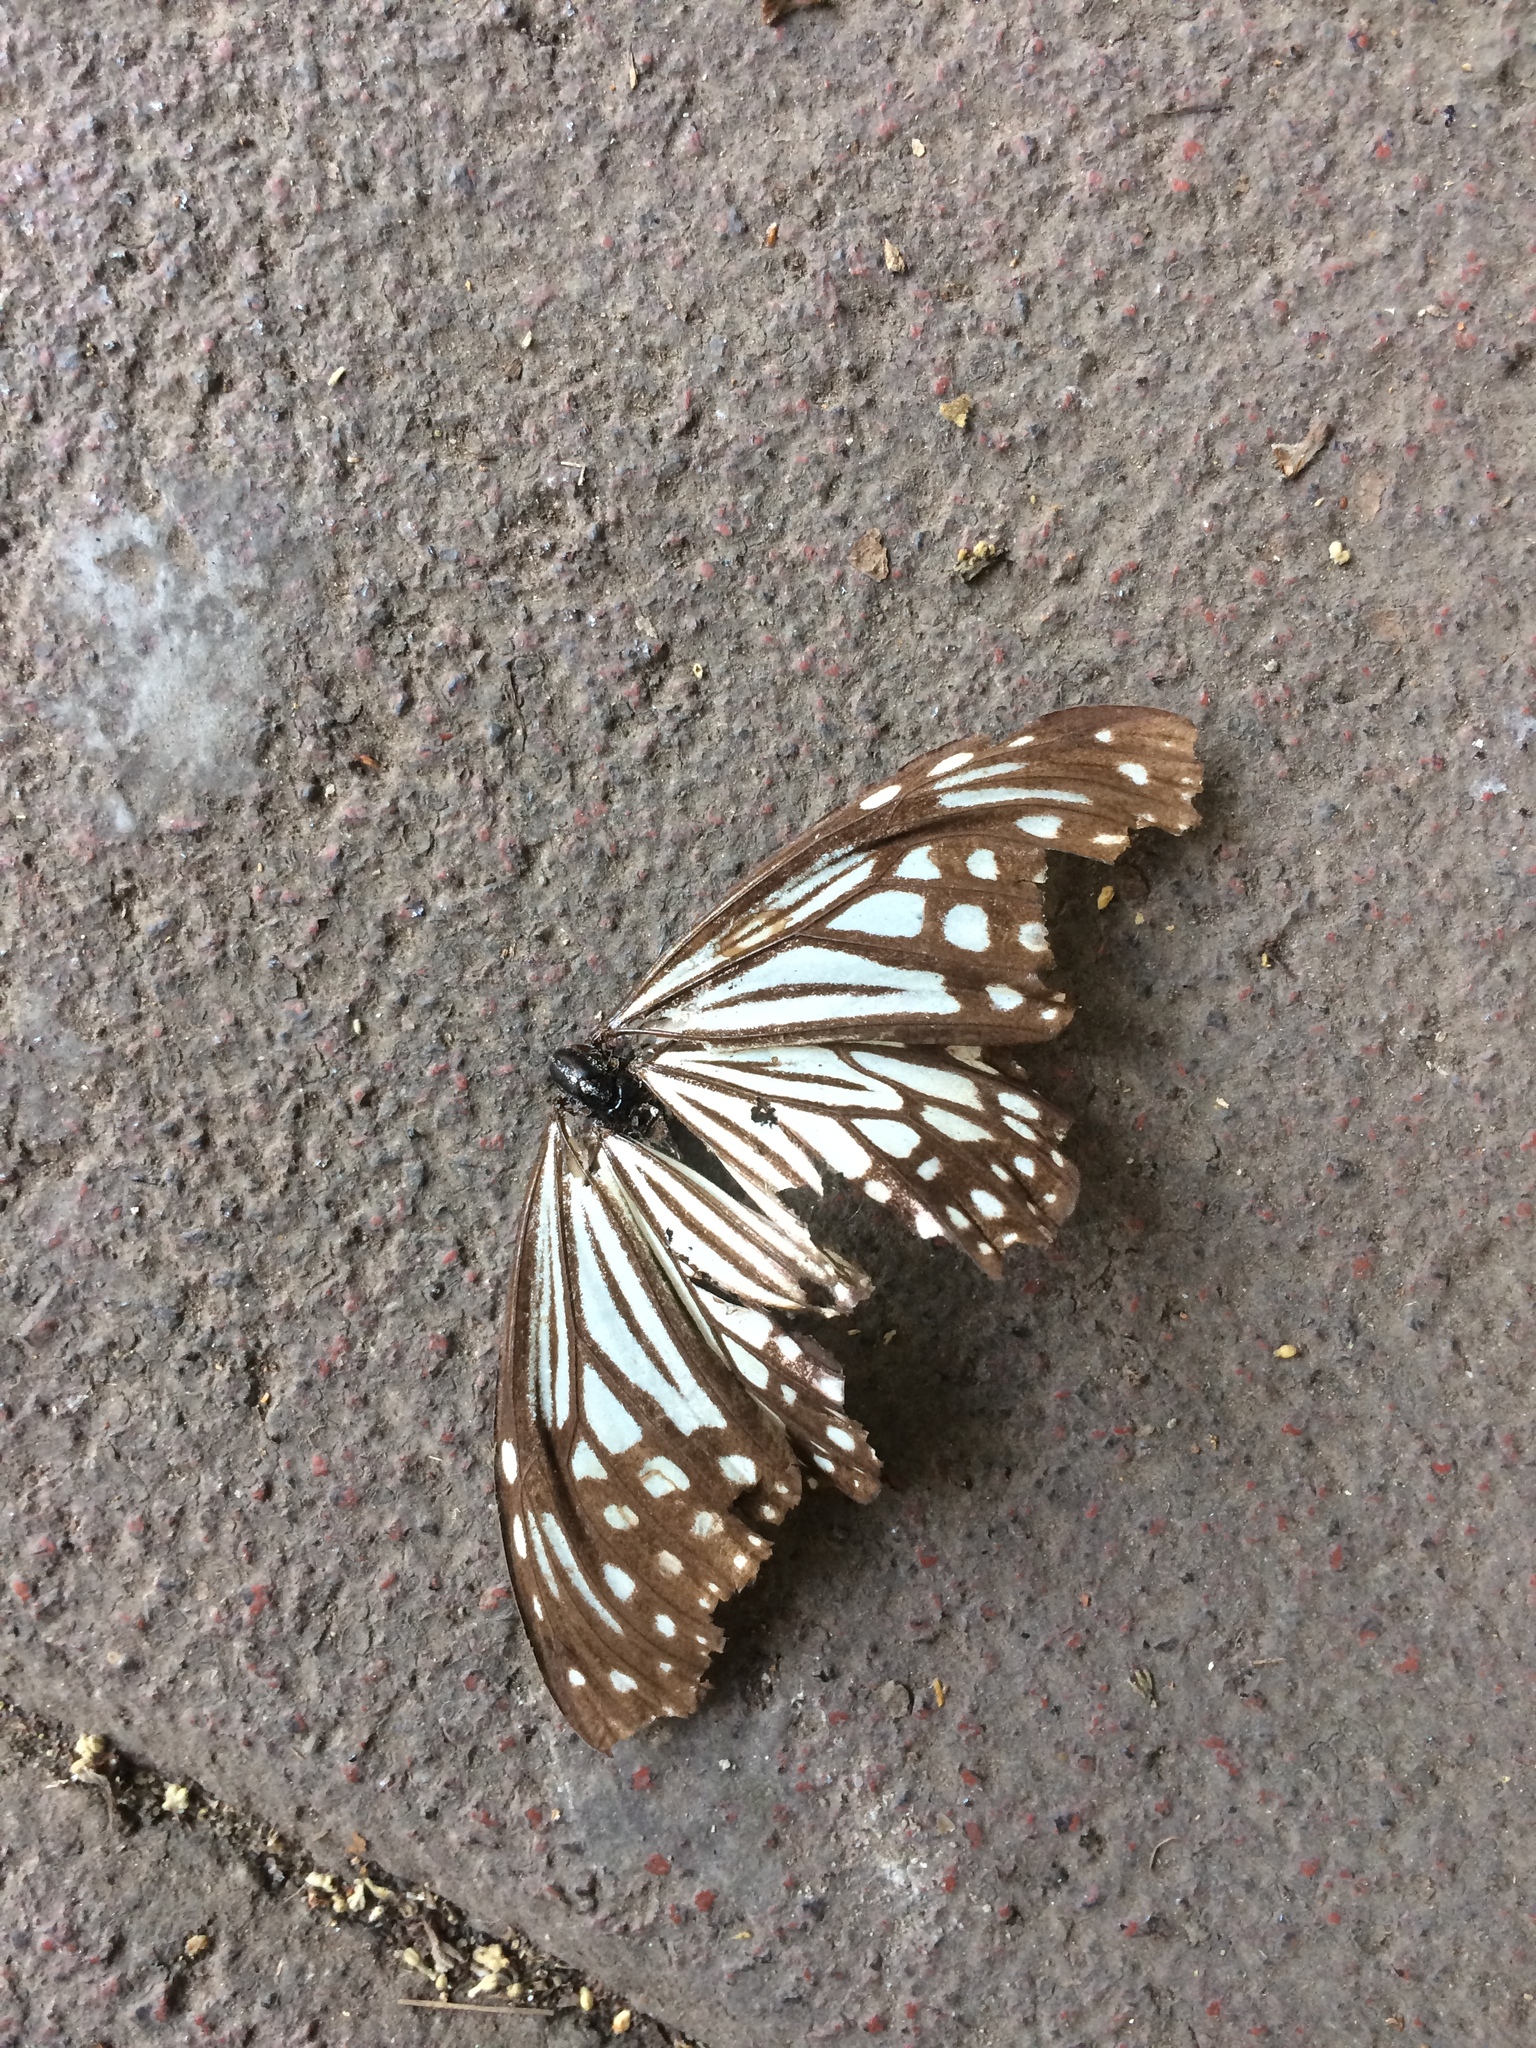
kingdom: Animalia
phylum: Arthropoda
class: Insecta
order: Lepidoptera
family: Nymphalidae
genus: Parantica
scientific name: Parantica aglea
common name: Glassy tiger
